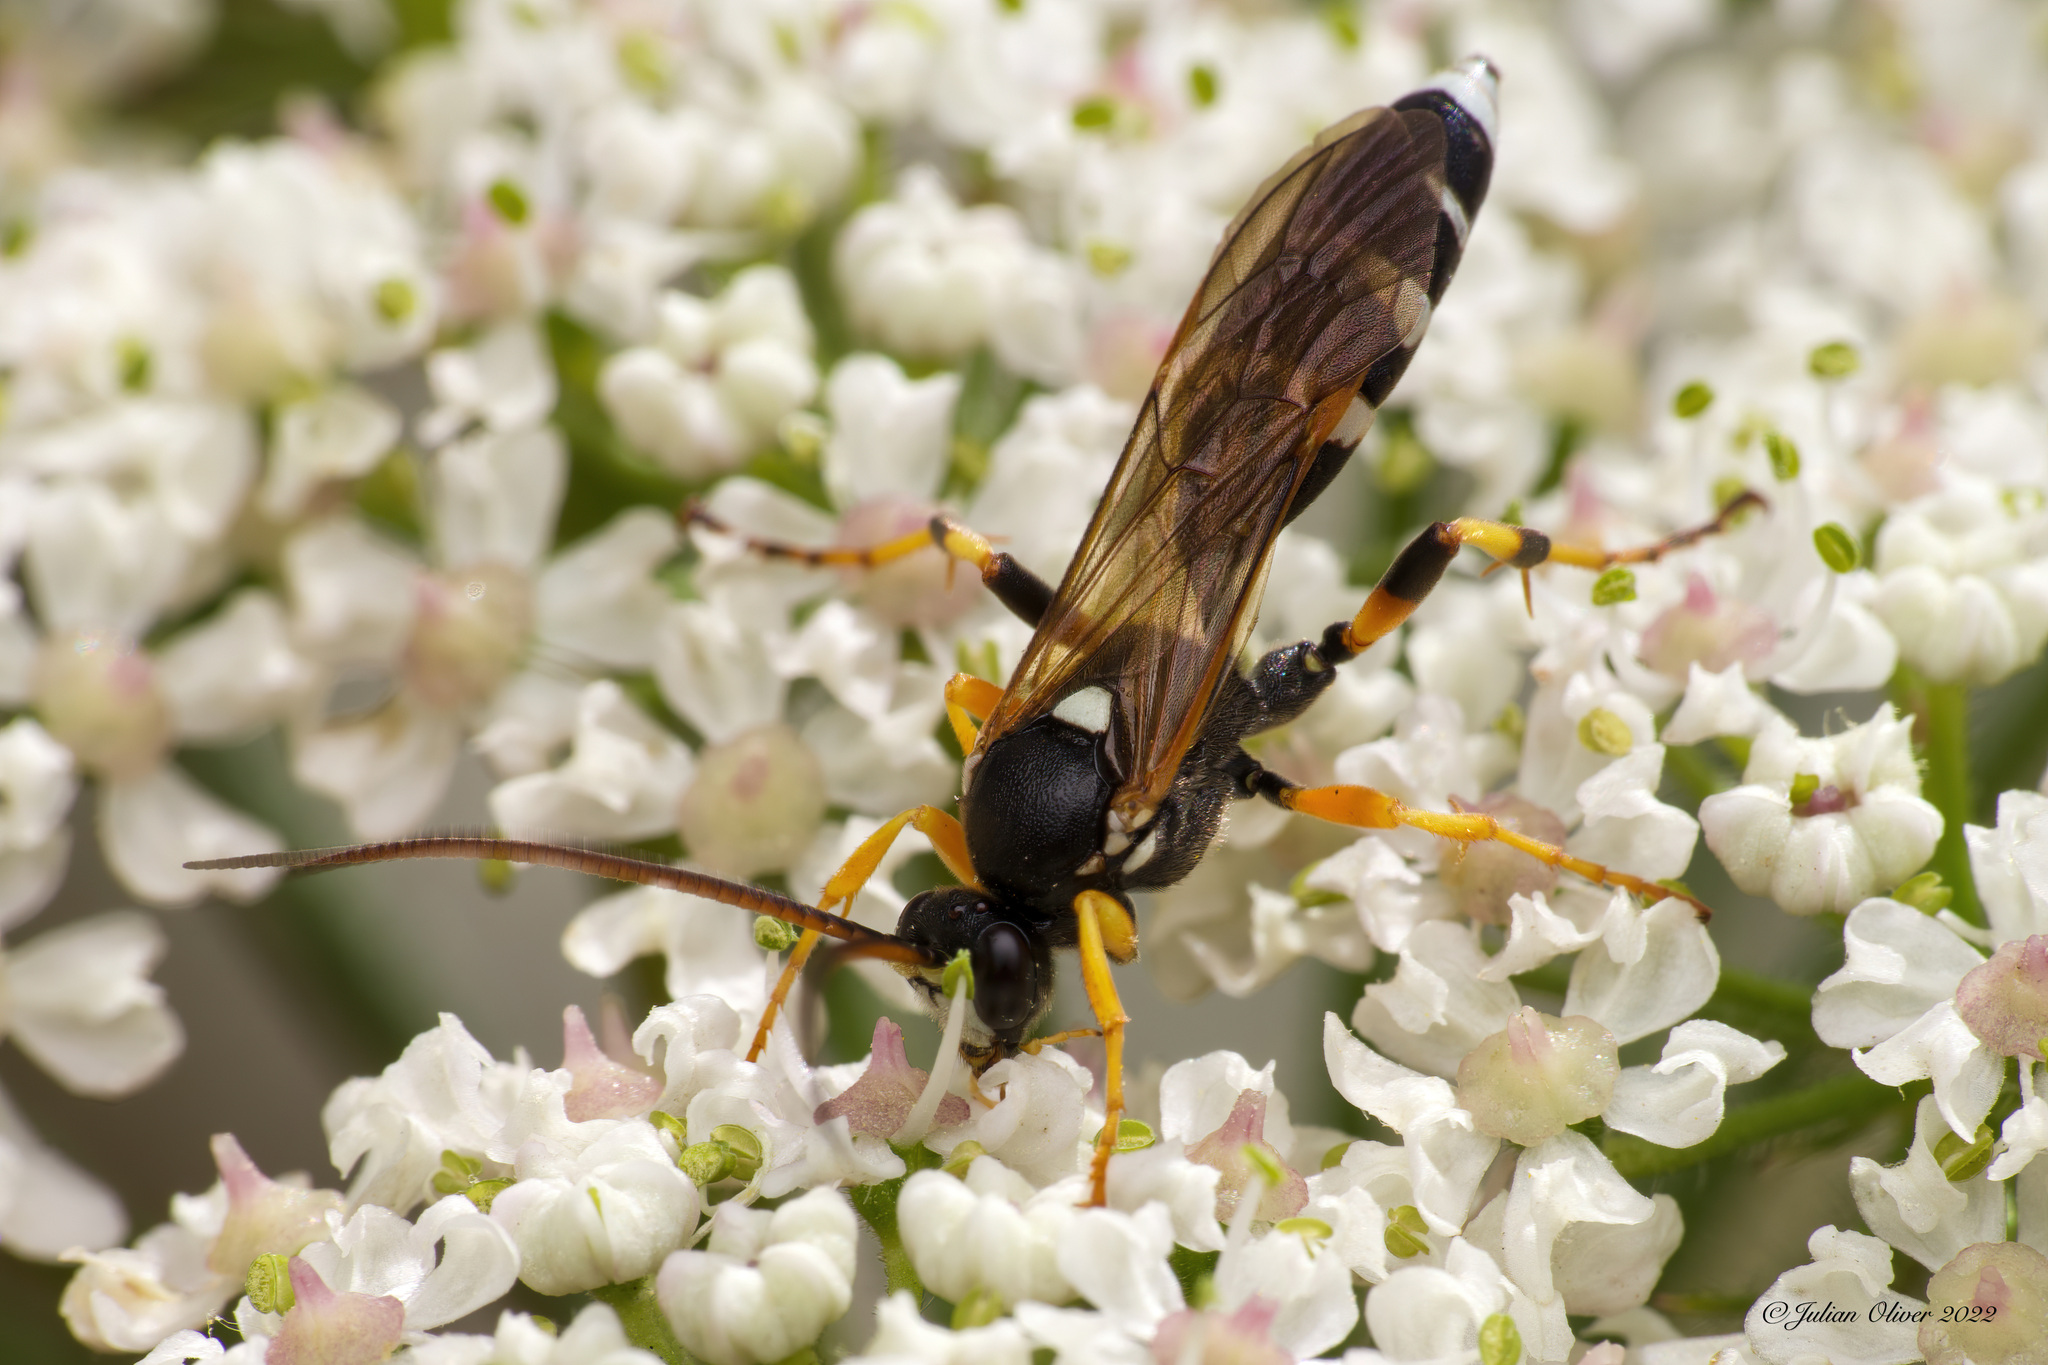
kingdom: Animalia
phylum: Arthropoda
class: Insecta
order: Hymenoptera
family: Ichneumonidae
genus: Ichneumon
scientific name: Ichneumon sarcitorius
